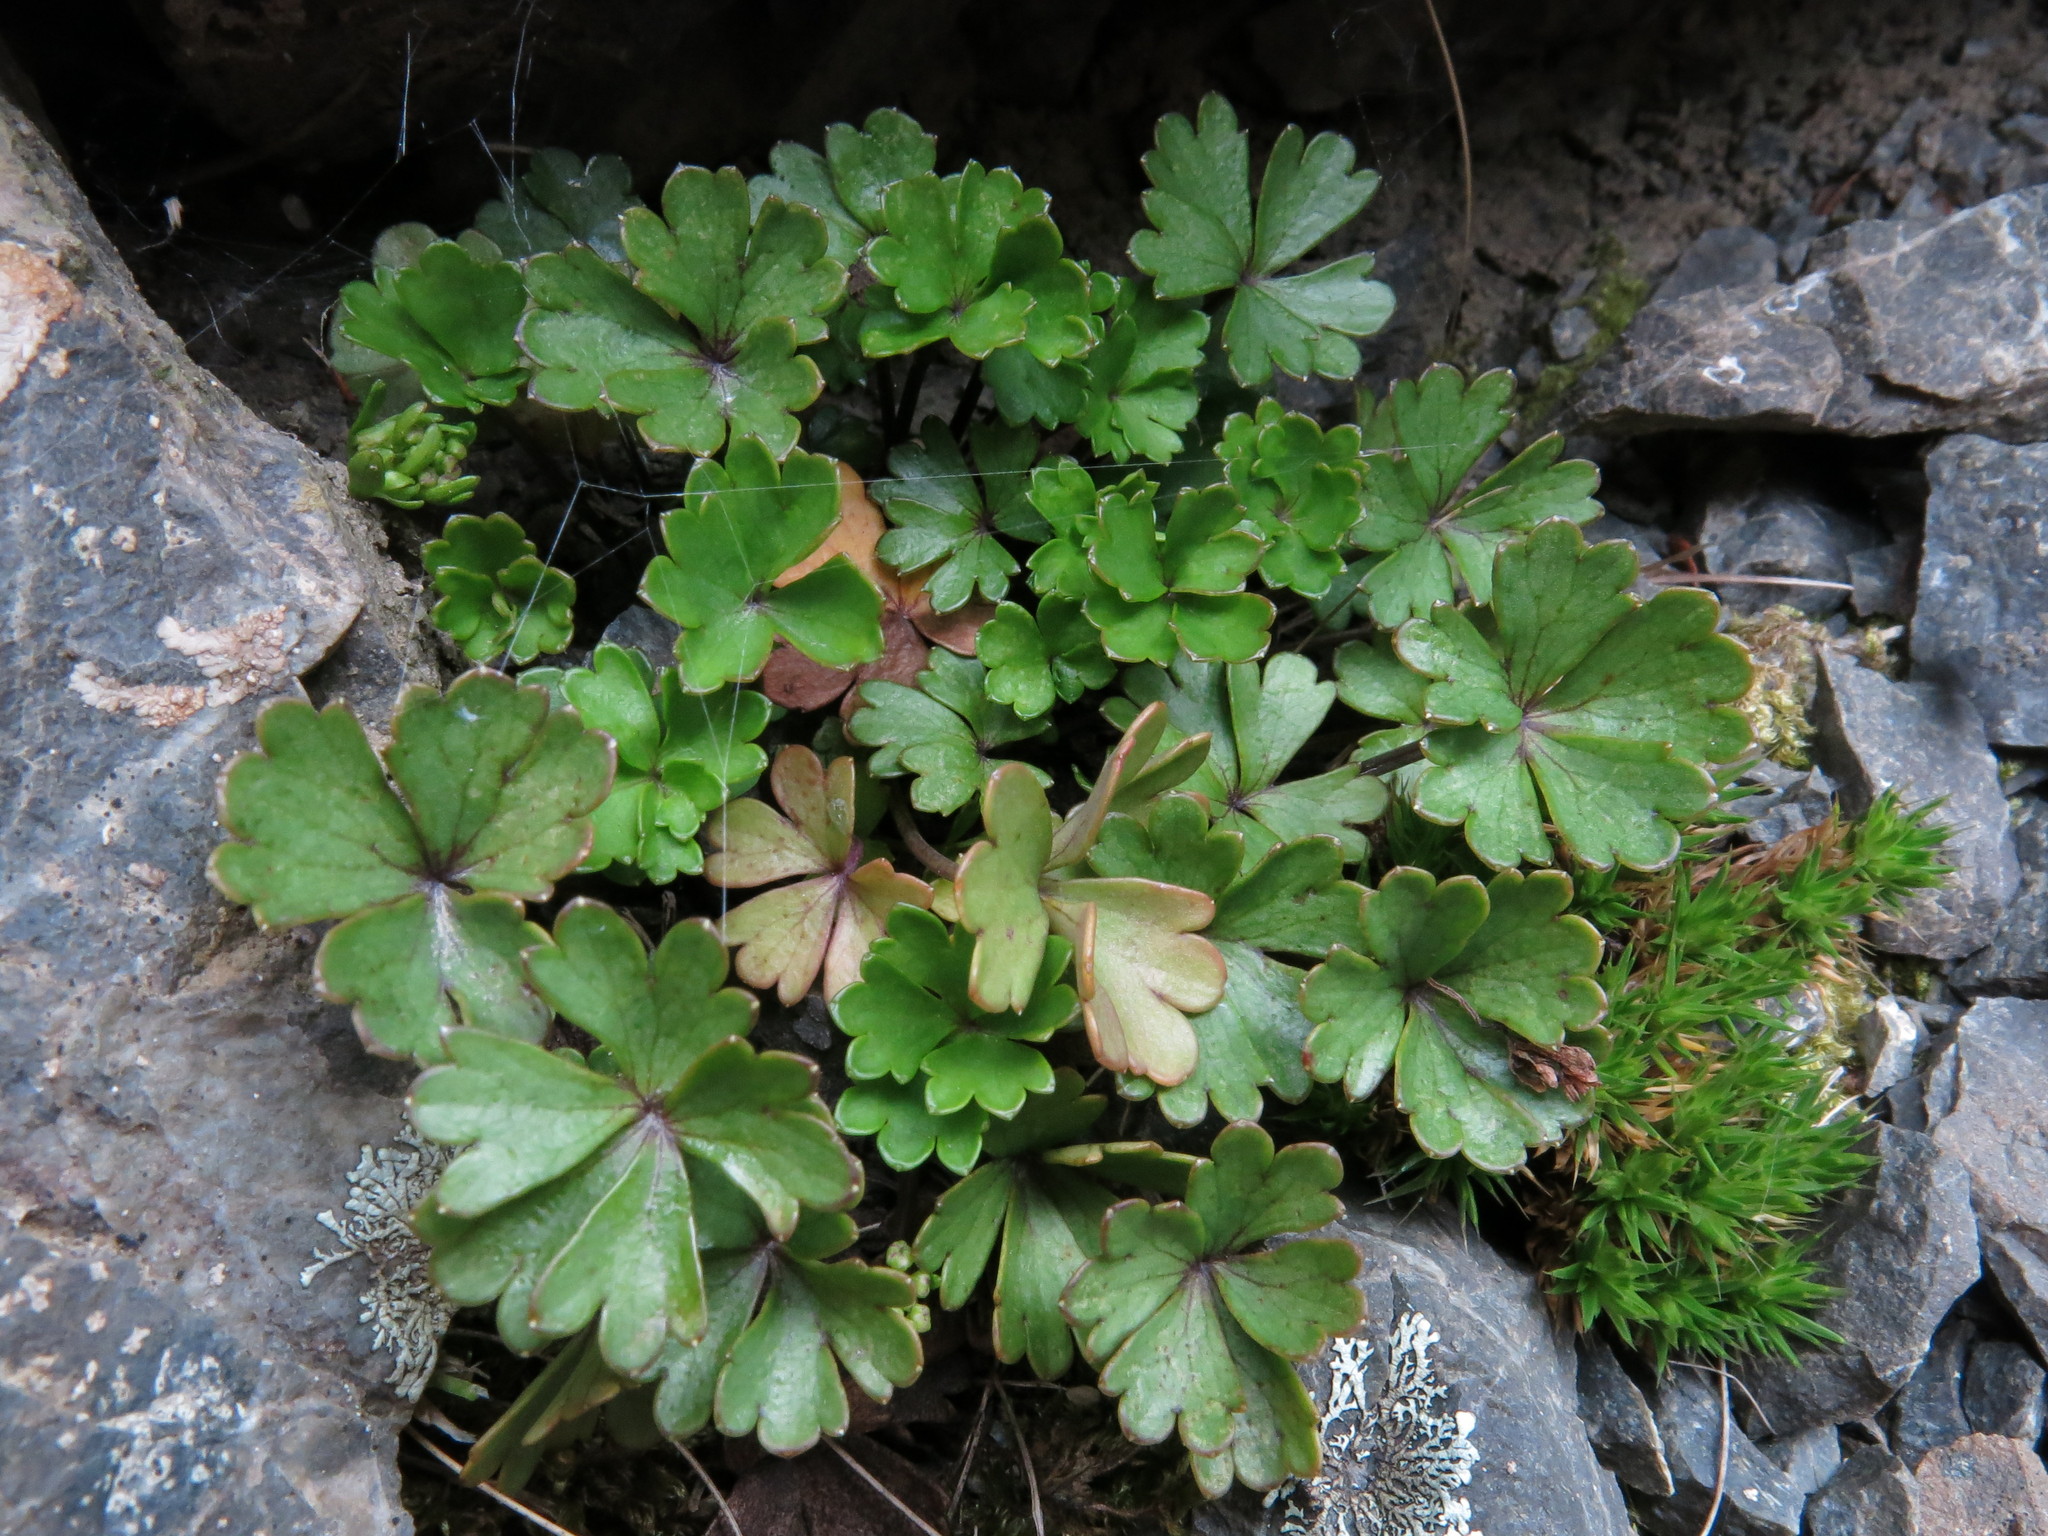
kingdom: Plantae
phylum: Tracheophyta
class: Magnoliopsida
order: Apiales
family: Apiaceae
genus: Azorella
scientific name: Azorella roughii
